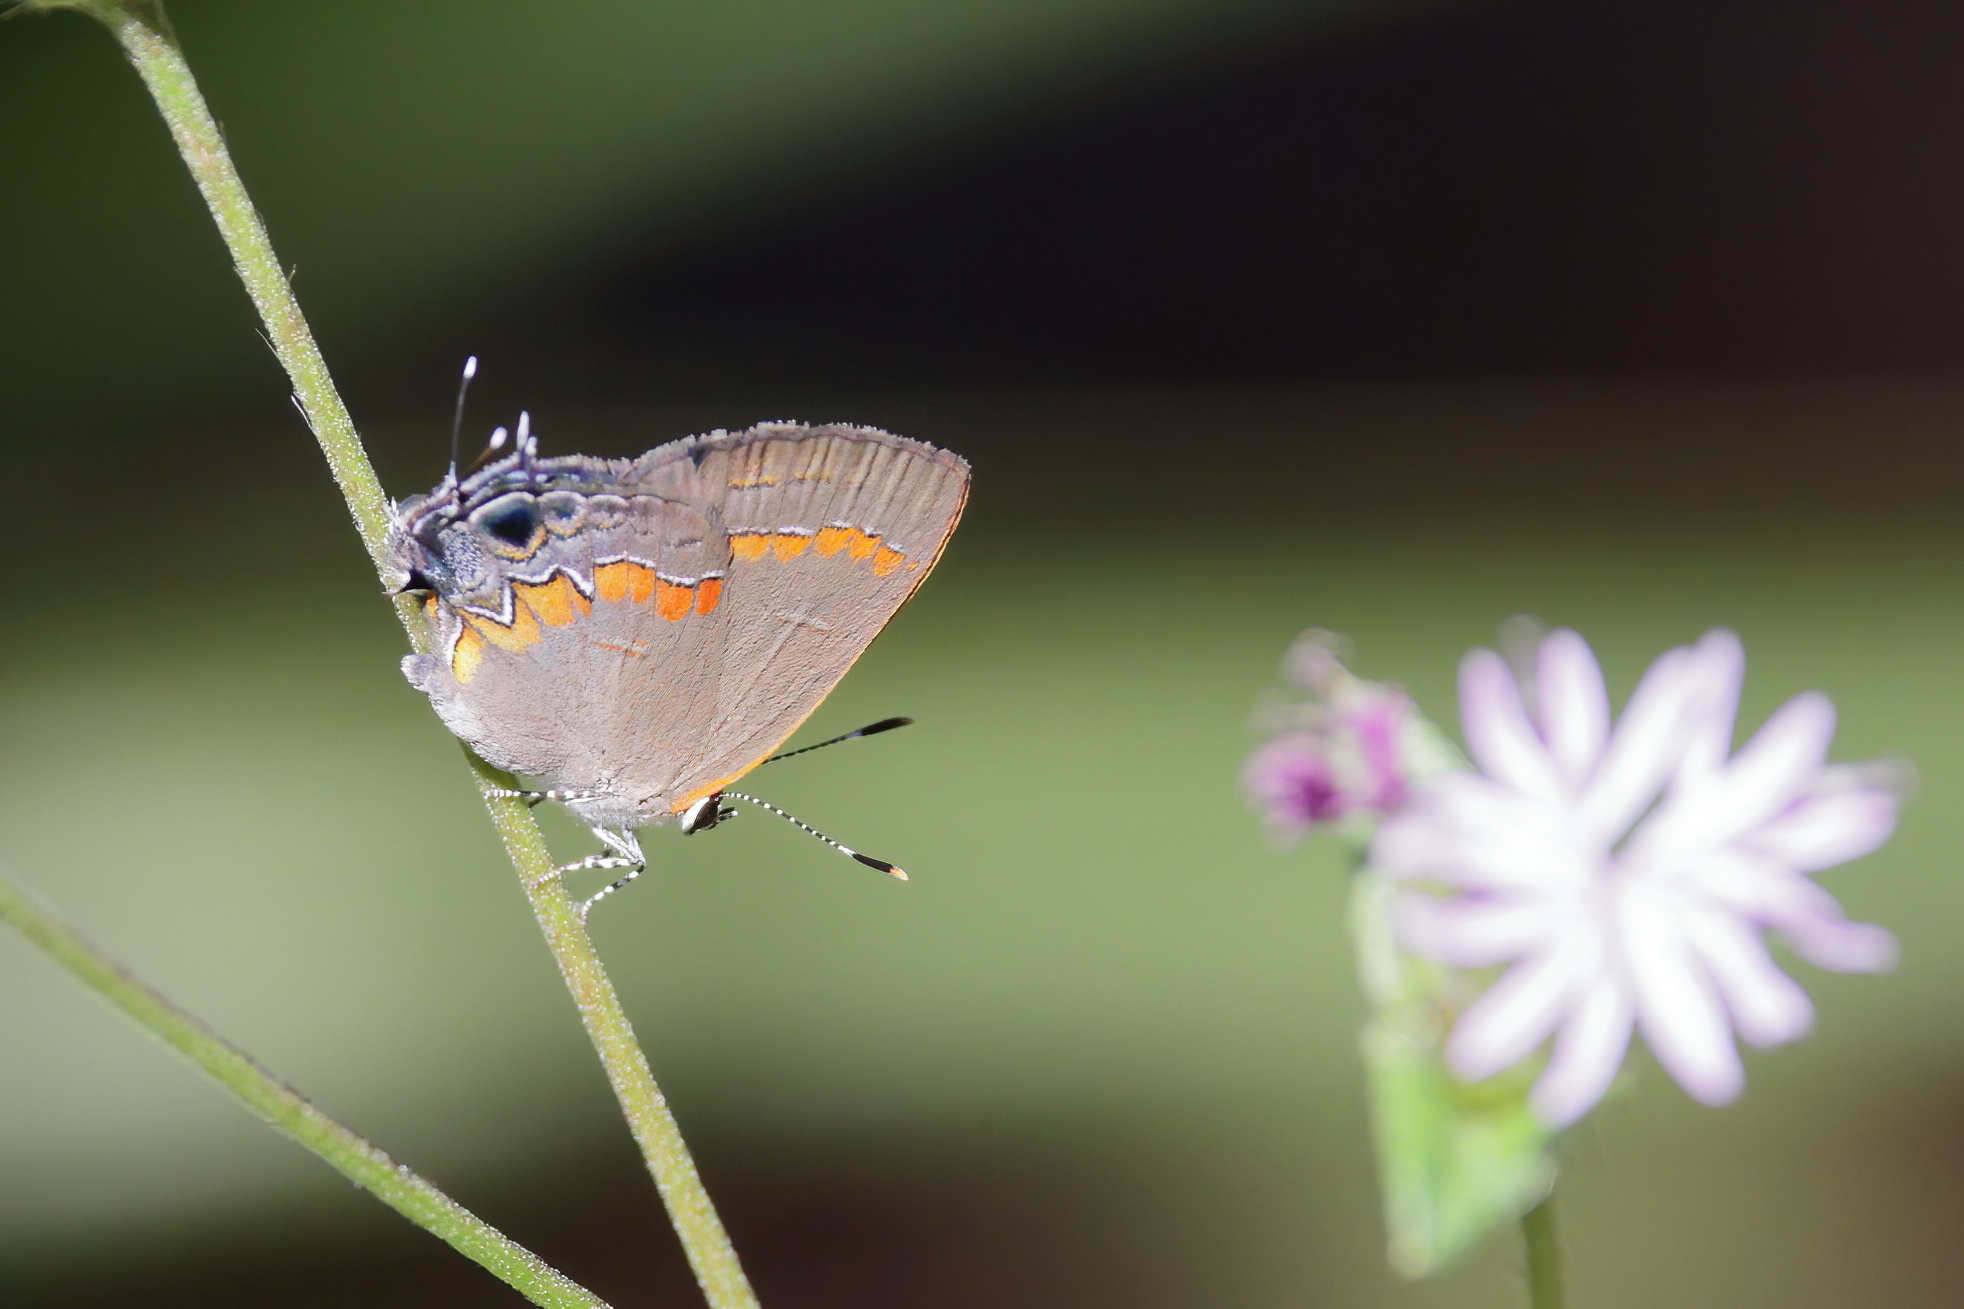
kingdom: Animalia
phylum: Arthropoda
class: Insecta
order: Lepidoptera
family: Lycaenidae
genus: Calycopis
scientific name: Calycopis cecrops
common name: Red-banded hairstreak
